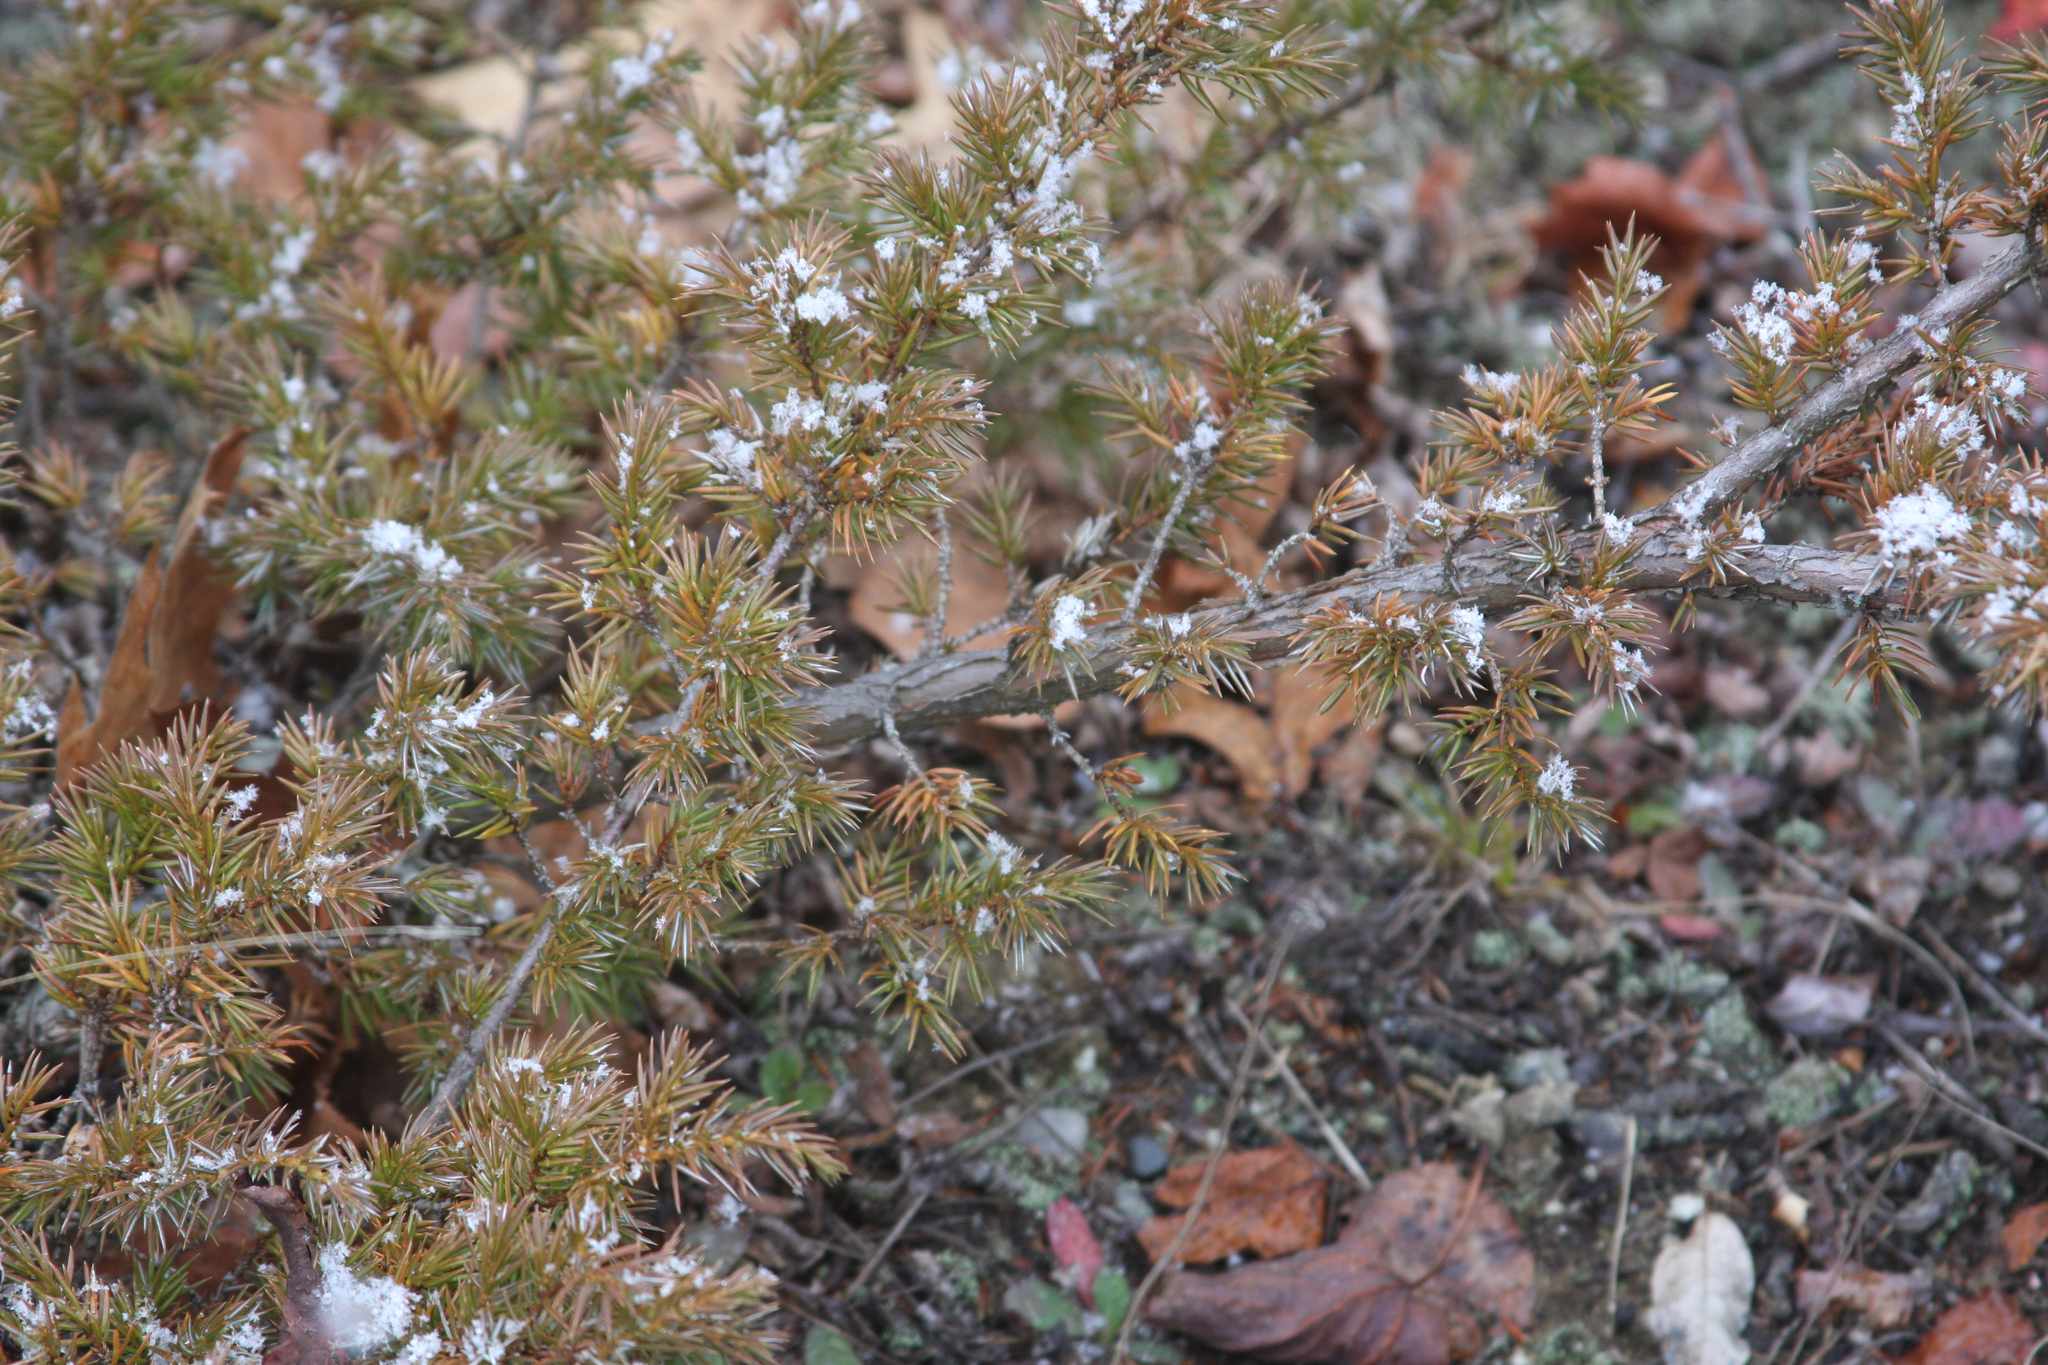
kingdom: Plantae
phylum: Tracheophyta
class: Pinopsida
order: Pinales
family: Cupressaceae
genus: Juniperus
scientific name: Juniperus communis
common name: Common juniper
